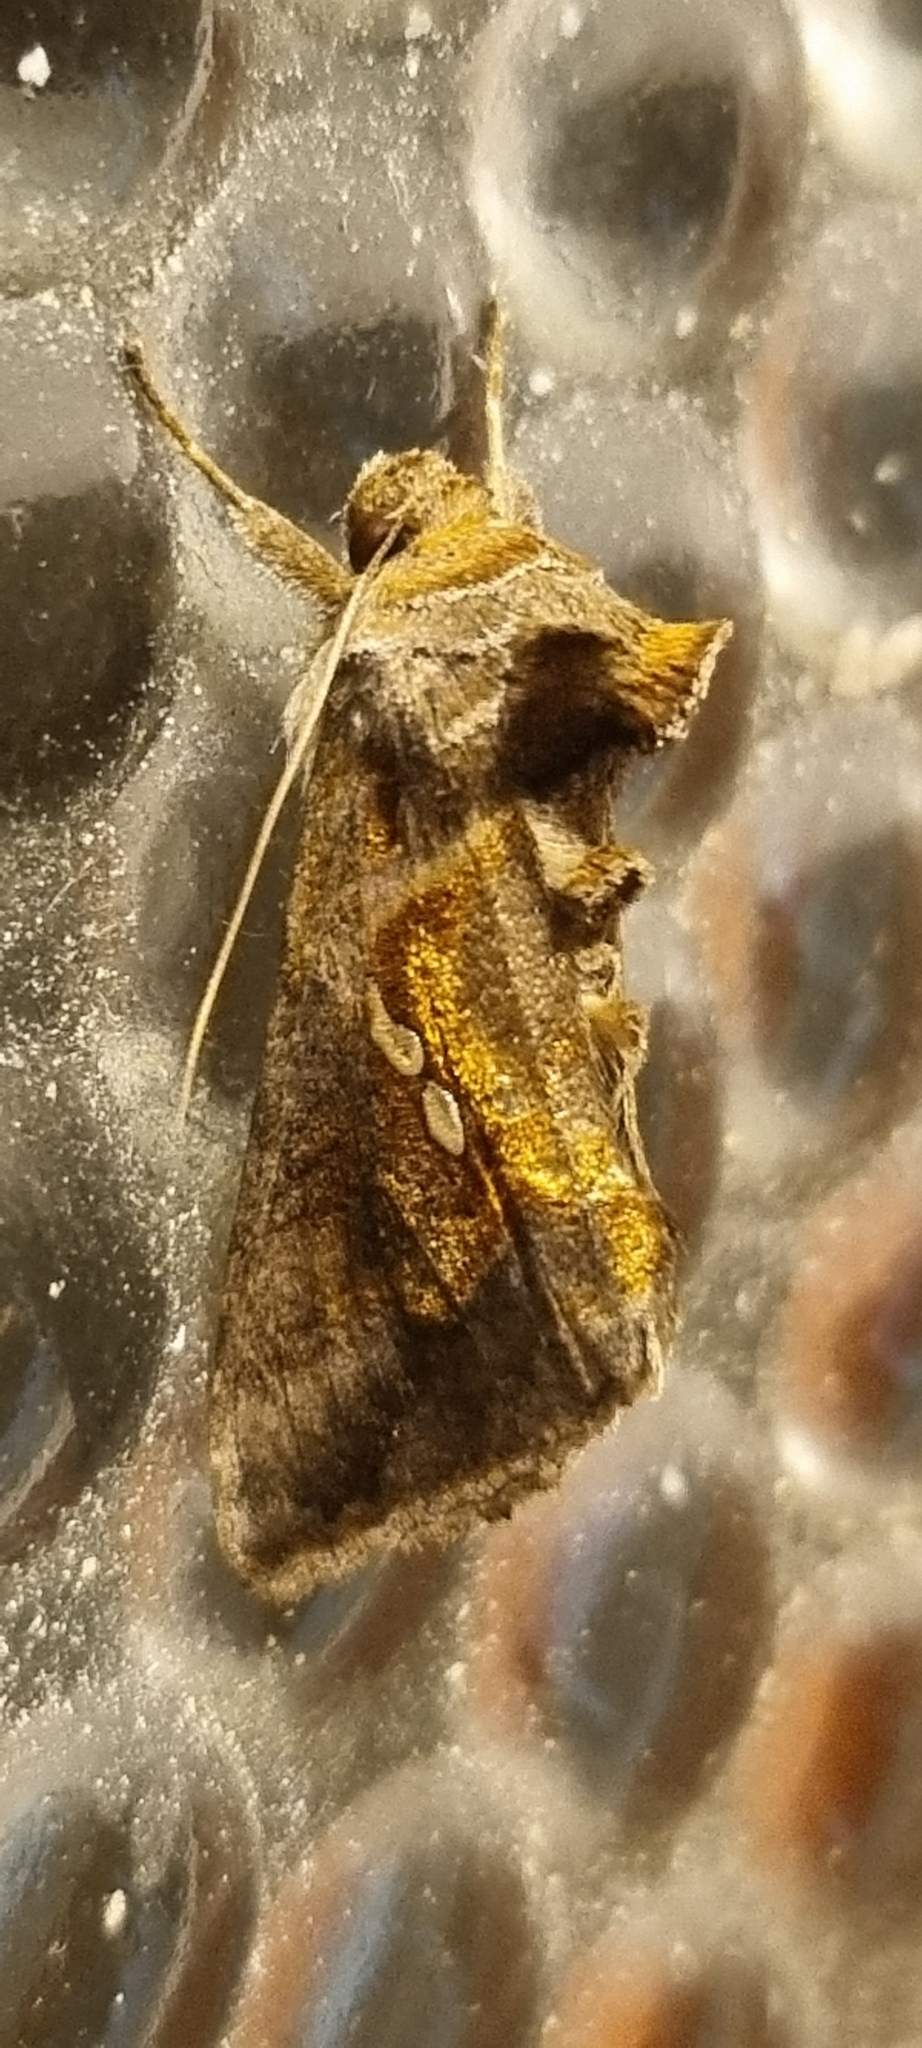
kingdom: Animalia
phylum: Arthropoda
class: Insecta
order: Lepidoptera
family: Noctuidae
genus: Chrysodeixis
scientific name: Chrysodeixis eriosoma
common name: Green garden looper
